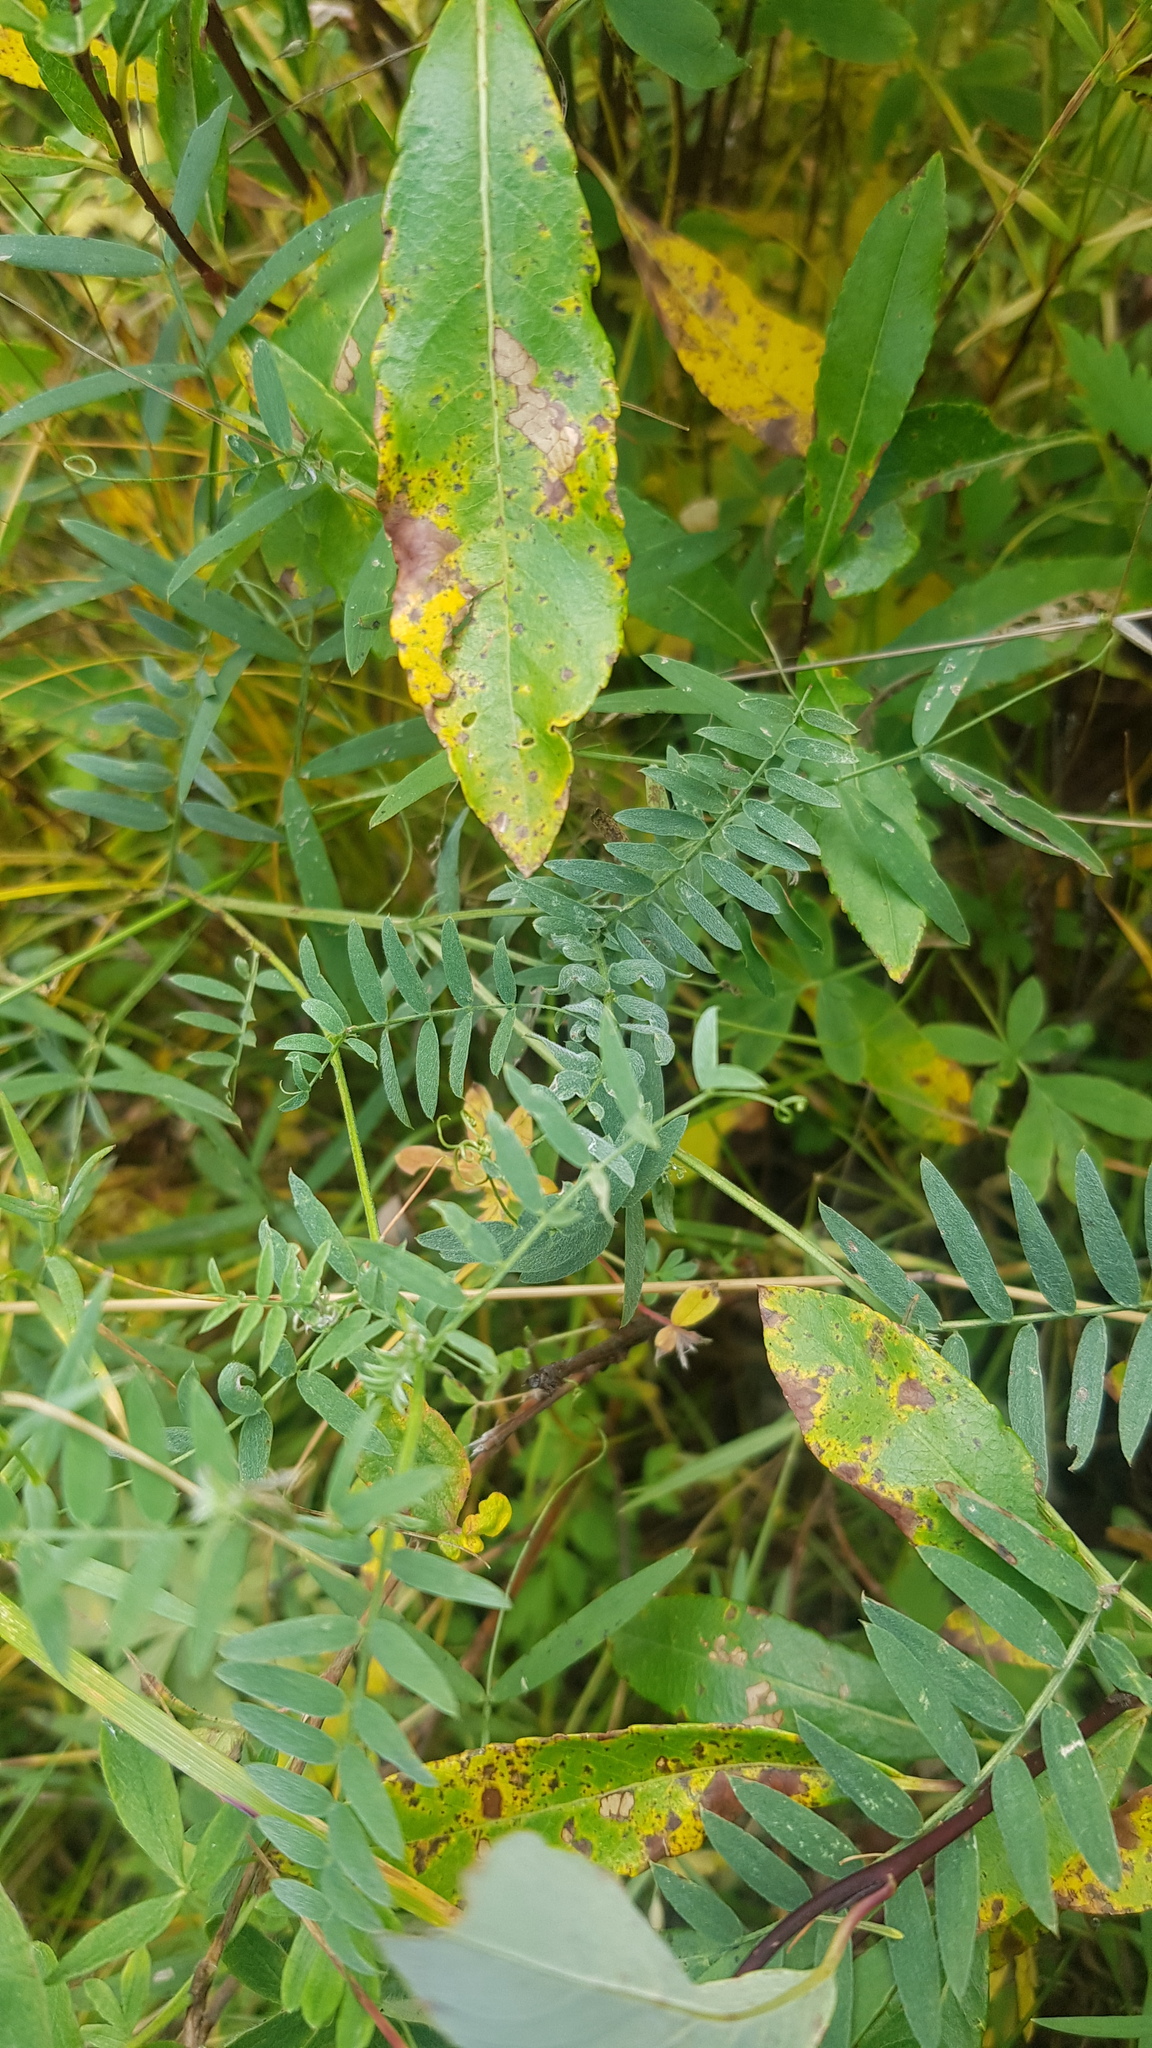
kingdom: Plantae
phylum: Tracheophyta
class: Magnoliopsida
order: Fabales
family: Fabaceae
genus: Vicia
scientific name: Vicia cracca
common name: Bird vetch
